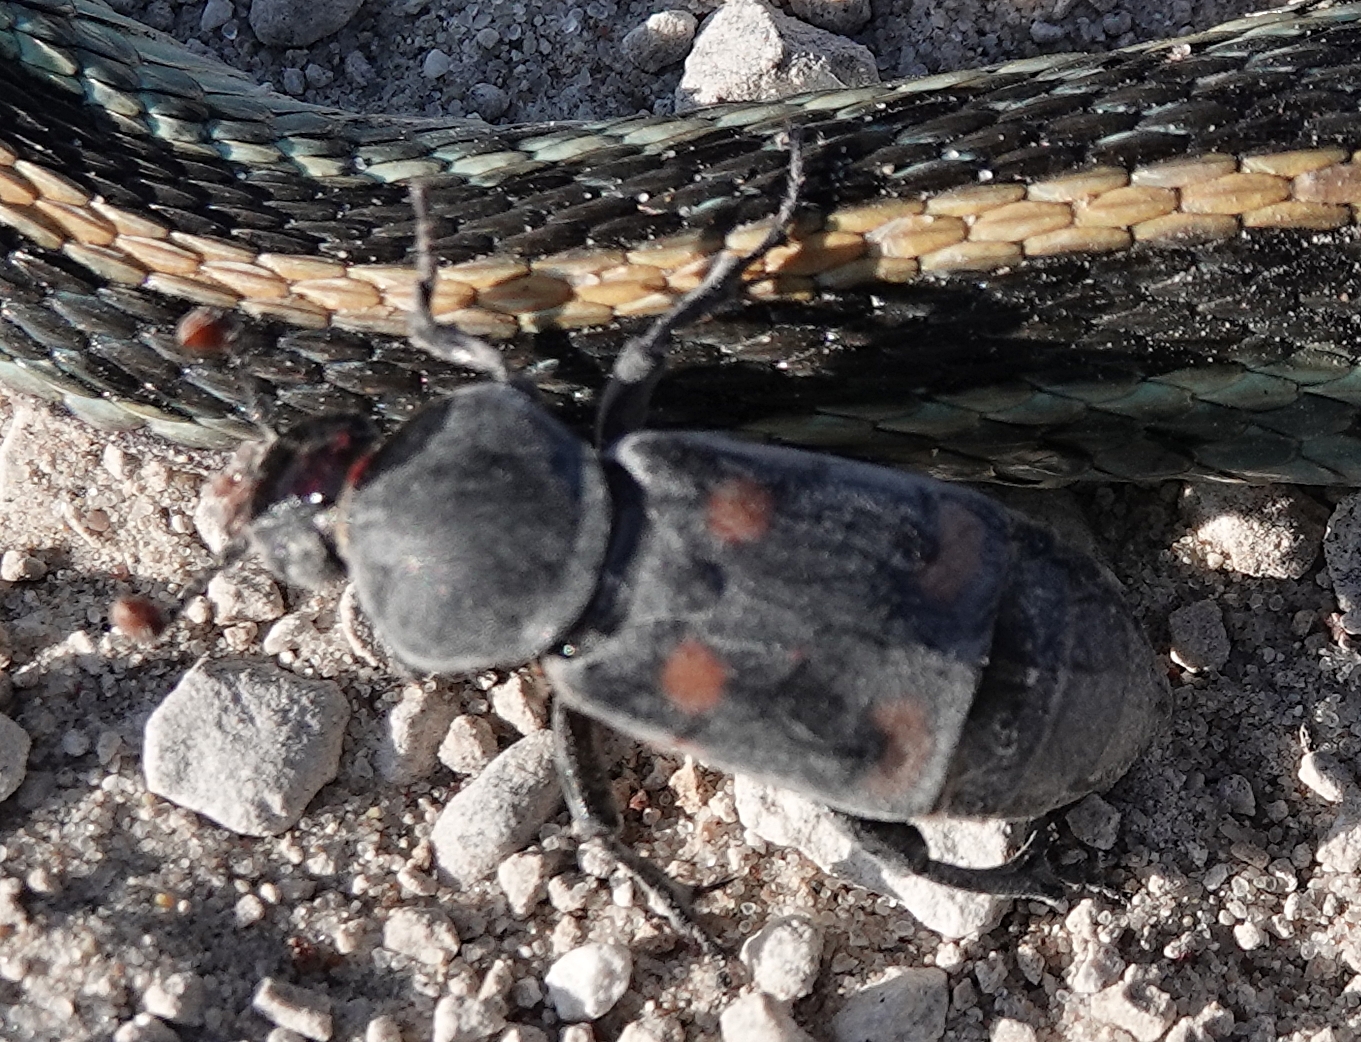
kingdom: Animalia
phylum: Arthropoda
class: Insecta
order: Coleoptera
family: Staphylinidae
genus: Nicrophorus
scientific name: Nicrophorus carolinus
